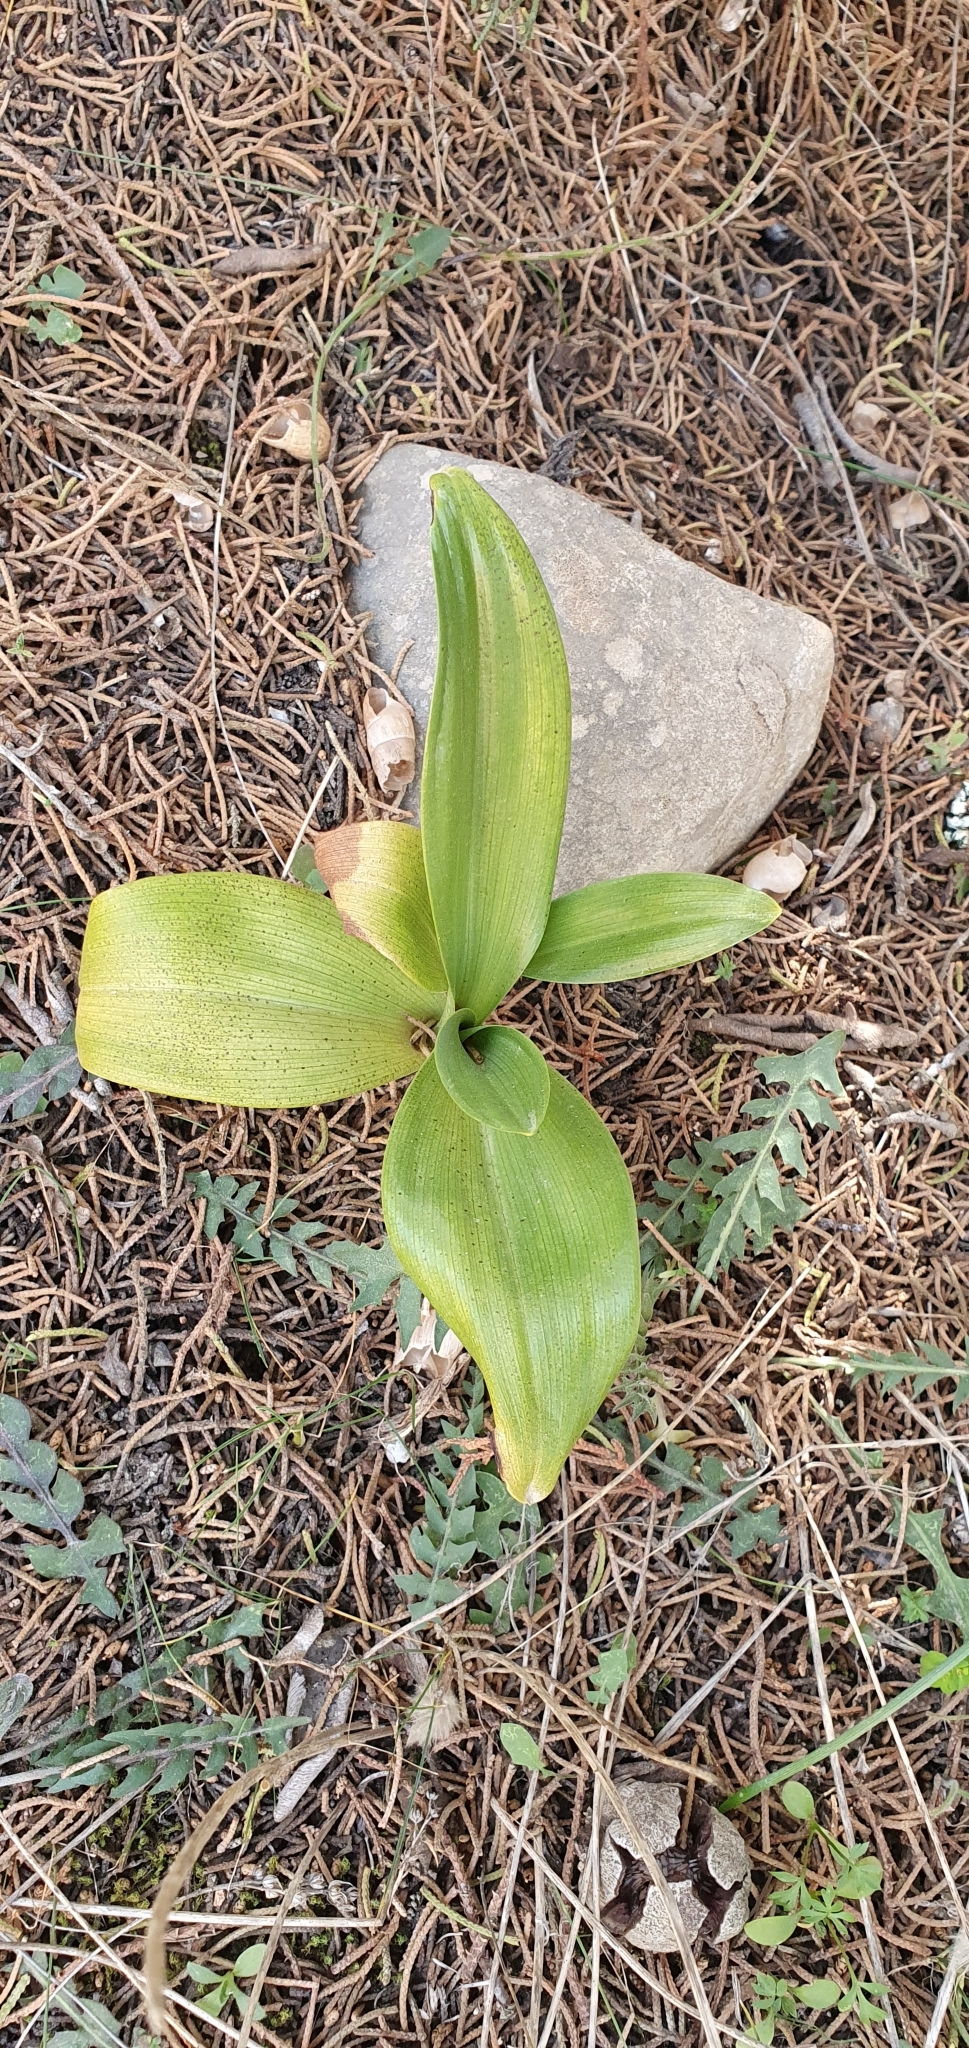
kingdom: Plantae
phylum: Tracheophyta
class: Liliopsida
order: Asparagales
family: Orchidaceae
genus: Himantoglossum
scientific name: Himantoglossum hircinum
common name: Lizard orchid
